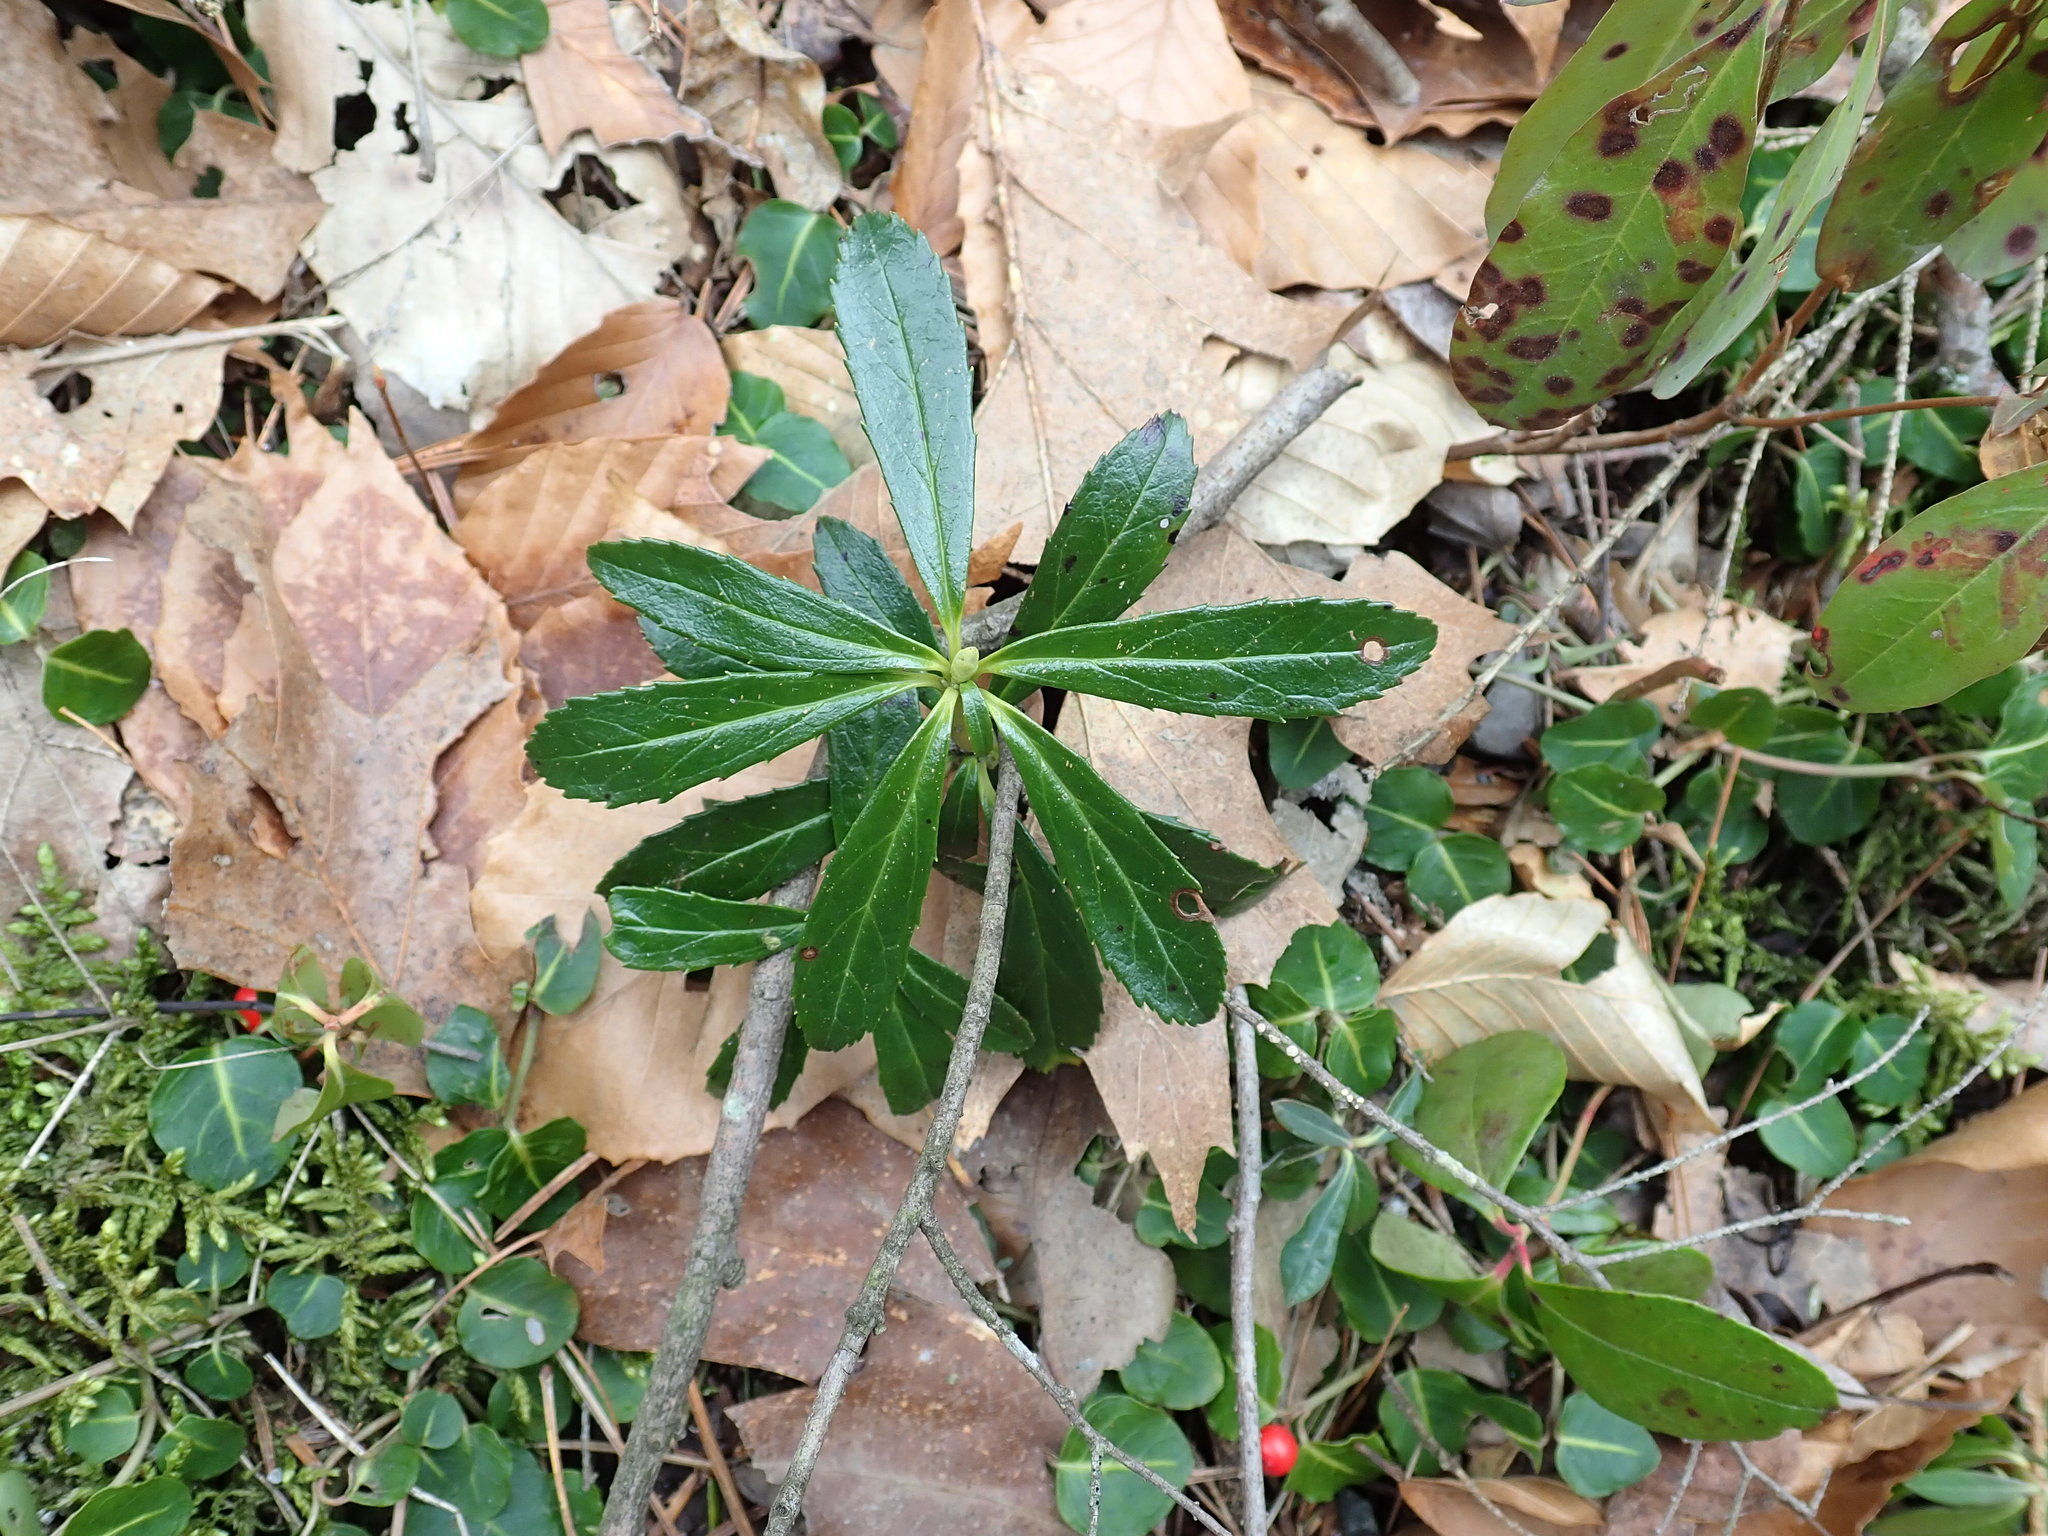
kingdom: Plantae
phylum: Tracheophyta
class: Magnoliopsida
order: Ericales
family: Ericaceae
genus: Chimaphila
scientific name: Chimaphila umbellata
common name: Pipsissewa
